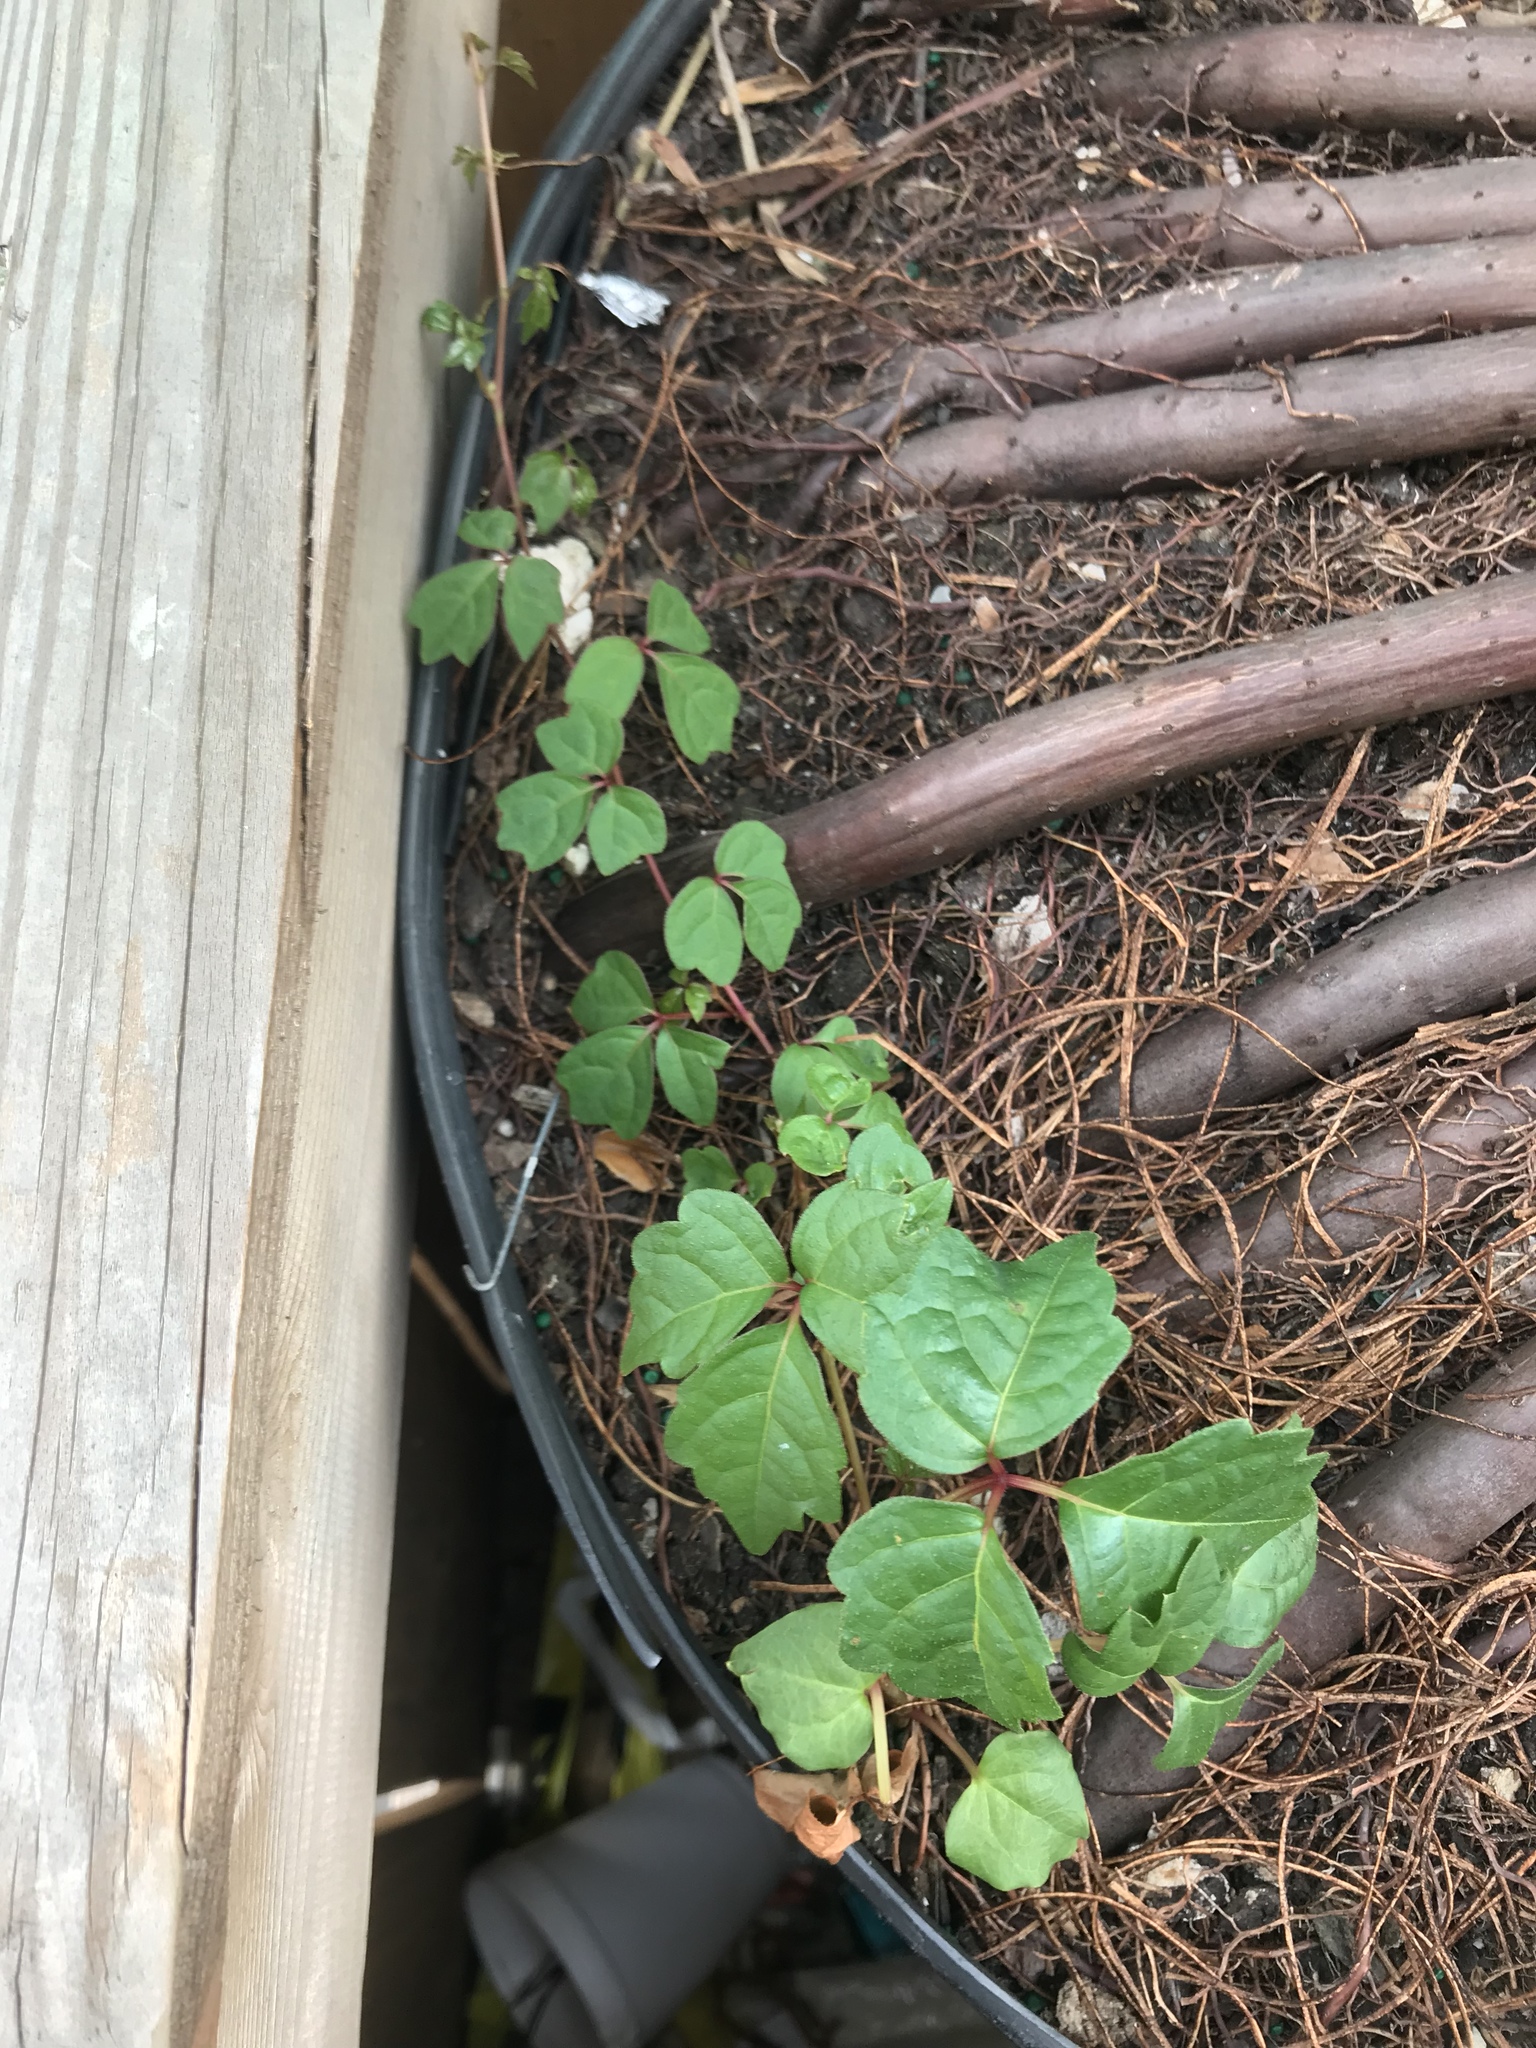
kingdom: Plantae
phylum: Tracheophyta
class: Magnoliopsida
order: Vitales
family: Vitaceae
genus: Parthenocissus
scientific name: Parthenocissus tricuspidata
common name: Boston ivy
